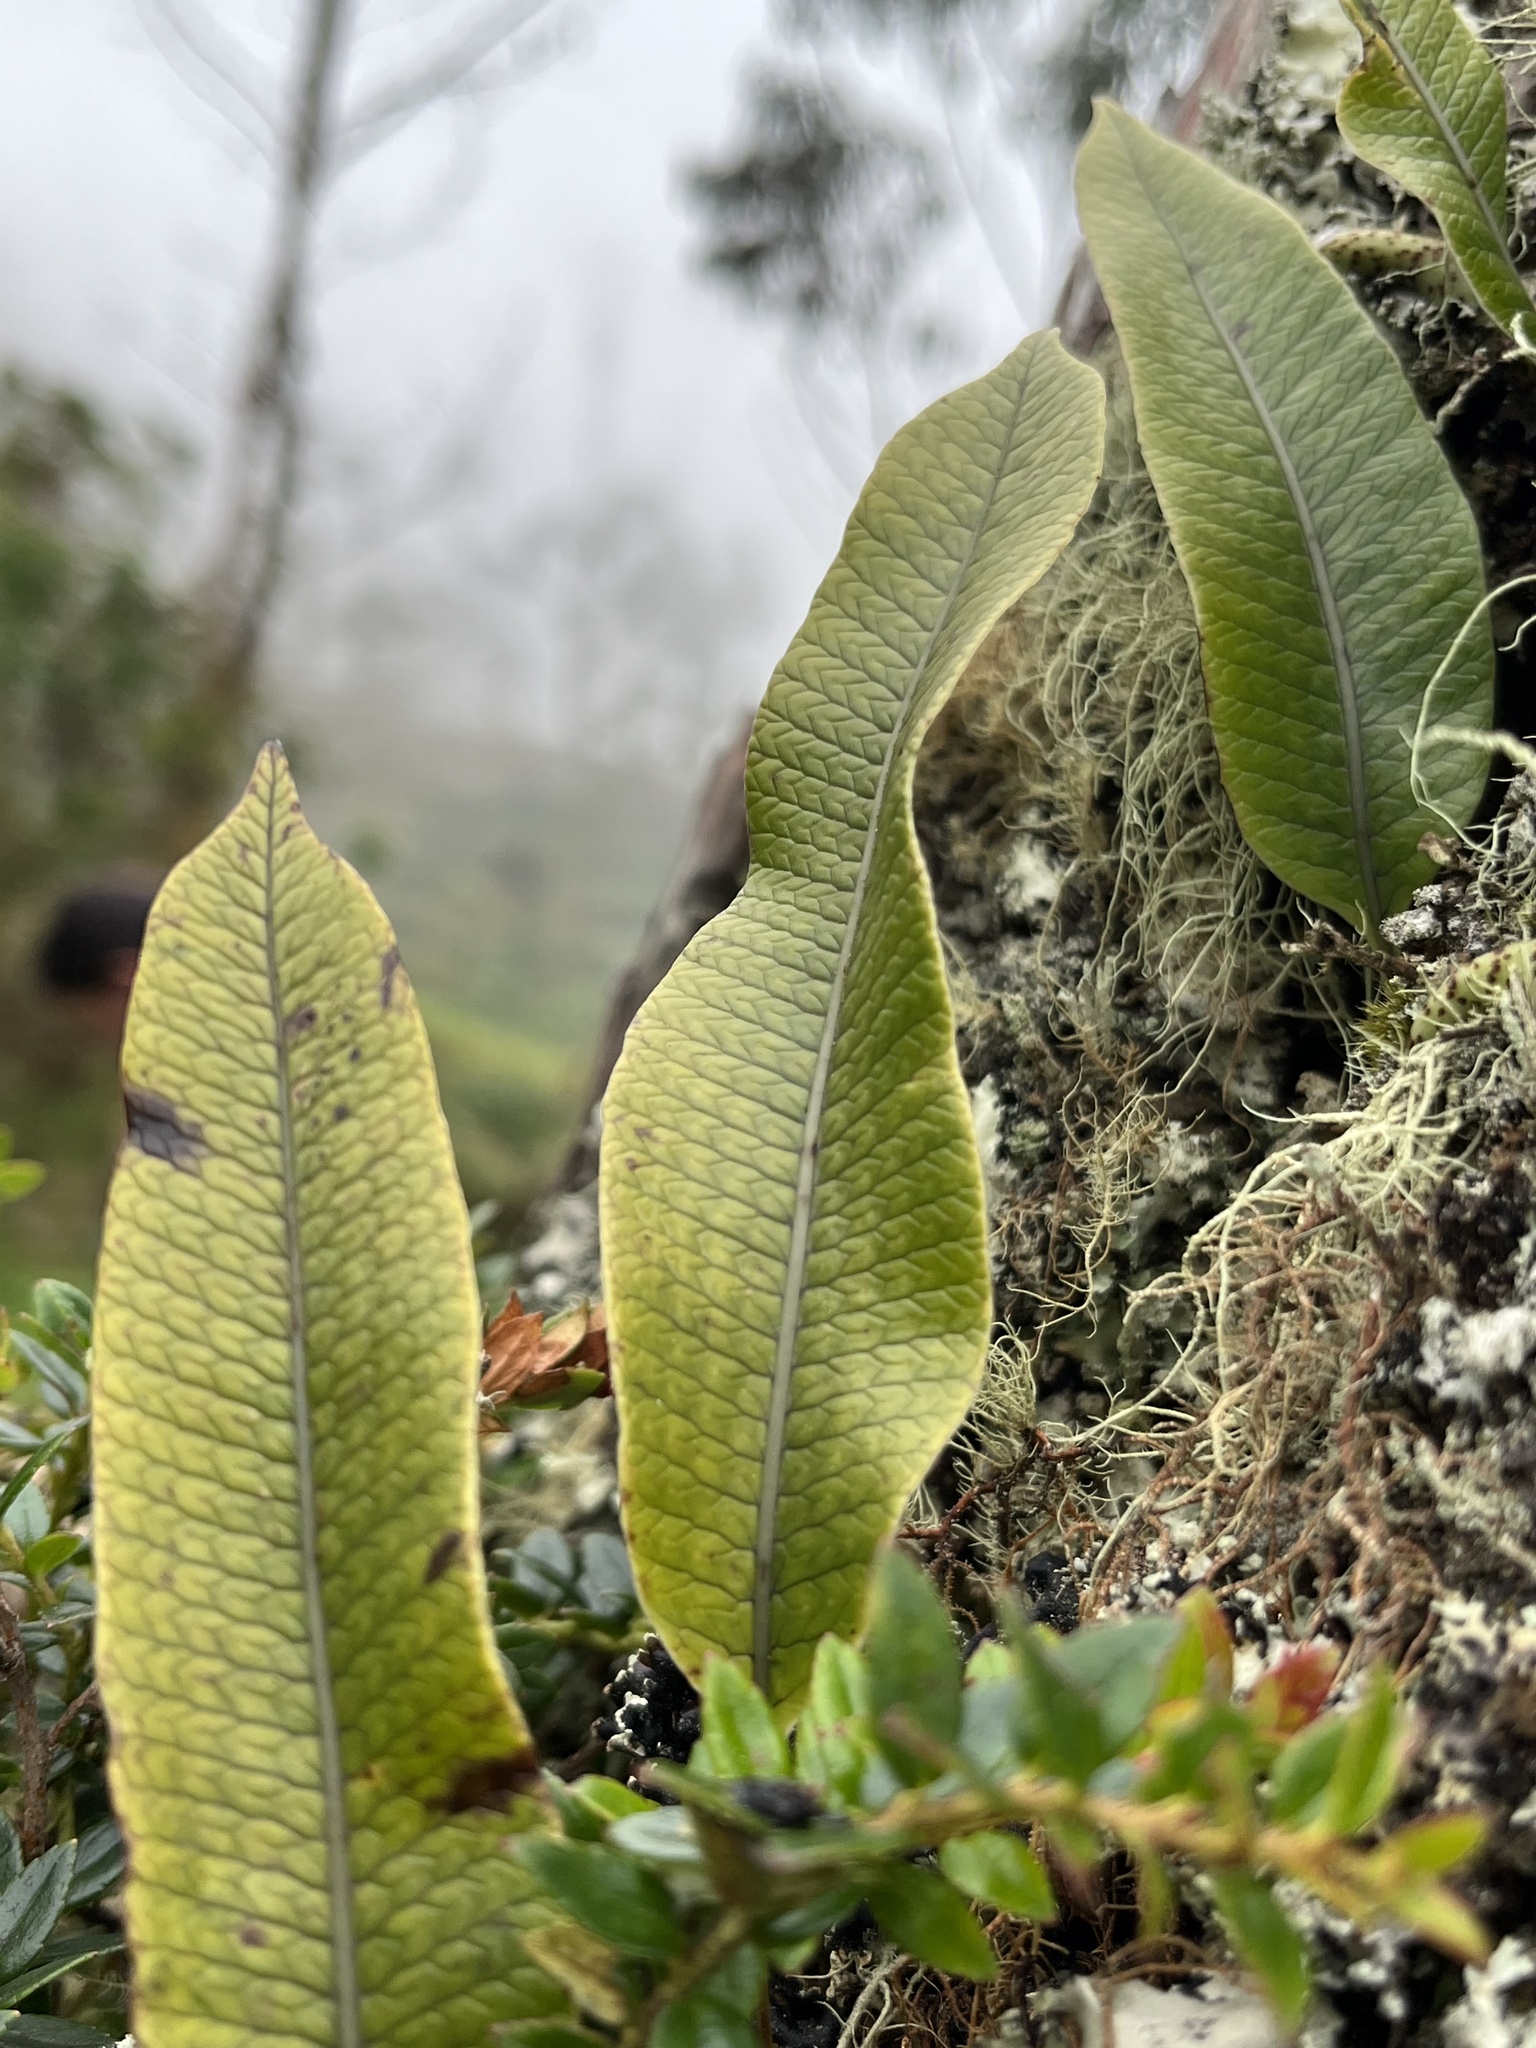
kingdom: Plantae
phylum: Tracheophyta
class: Polypodiopsida
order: Polypodiales
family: Polypodiaceae
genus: Serpocaulon
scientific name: Serpocaulon levigatum
